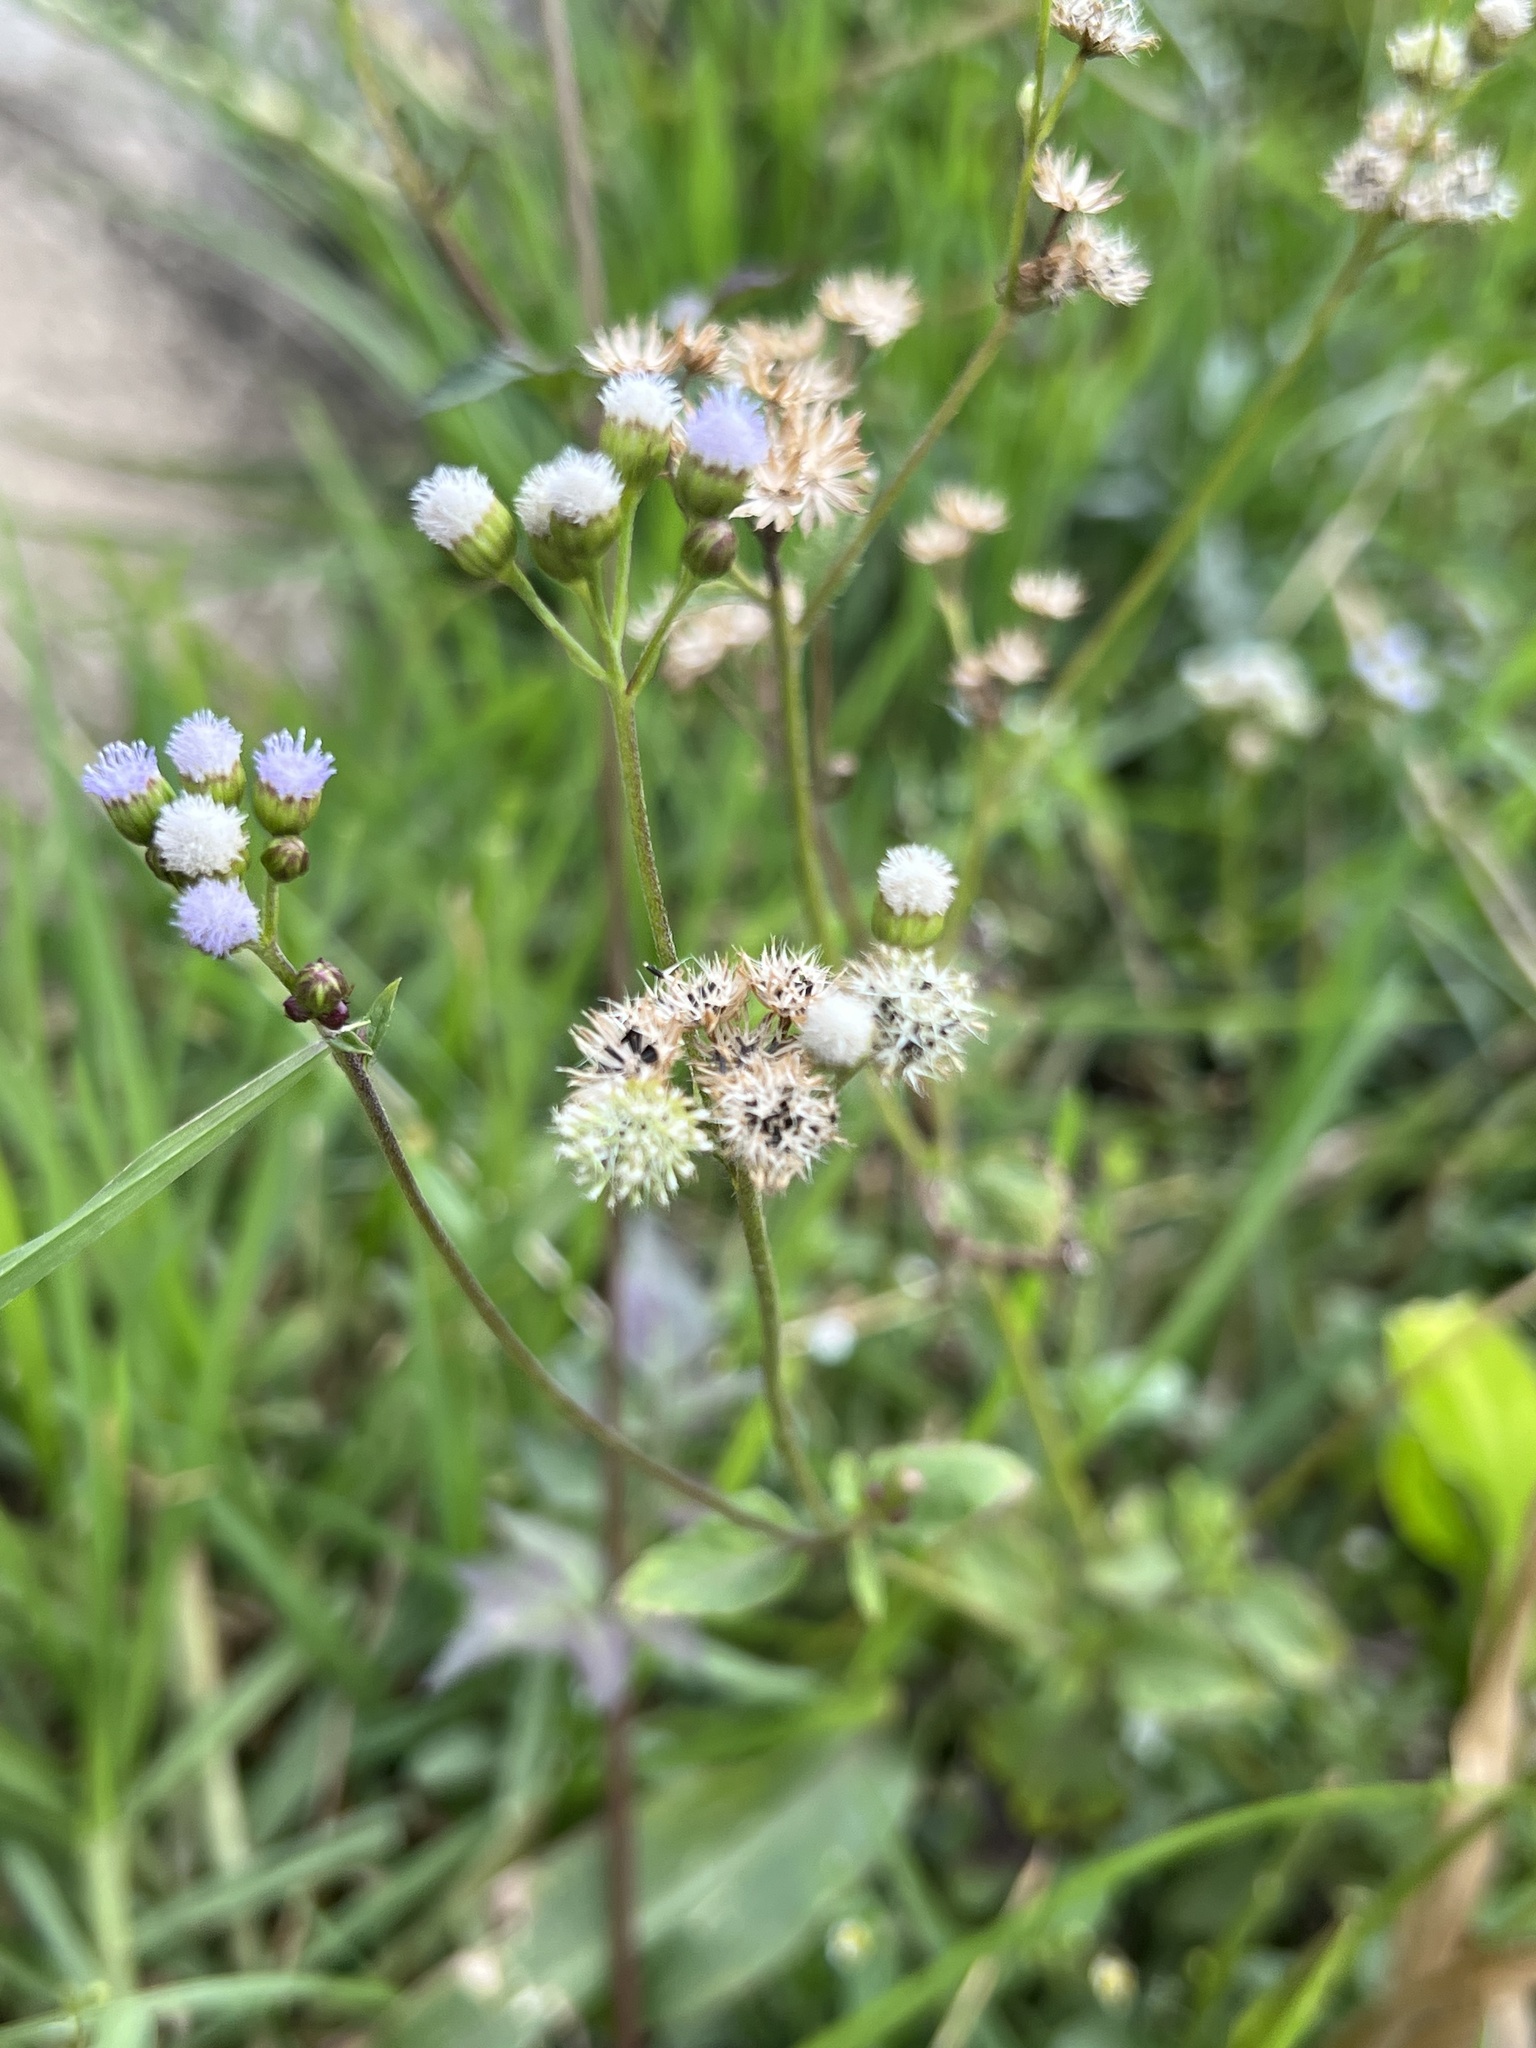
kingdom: Plantae
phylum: Tracheophyta
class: Magnoliopsida
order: Asterales
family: Asteraceae
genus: Ageratum
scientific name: Ageratum conyzoides
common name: Tropical whiteweed
